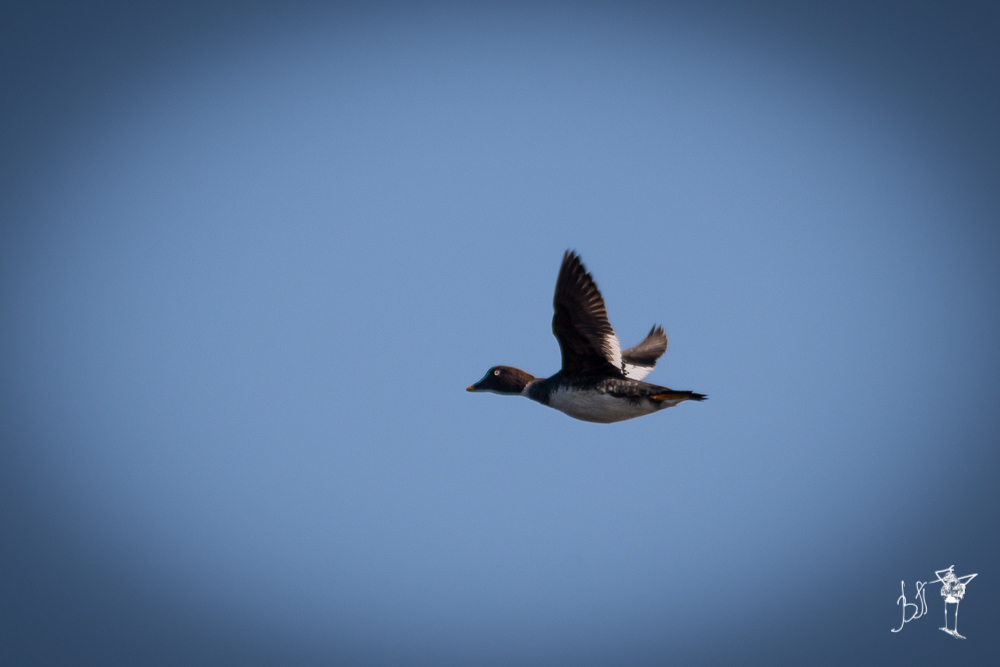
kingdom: Animalia
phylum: Chordata
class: Aves
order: Anseriformes
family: Anatidae
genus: Bucephala
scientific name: Bucephala clangula
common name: Common goldeneye
